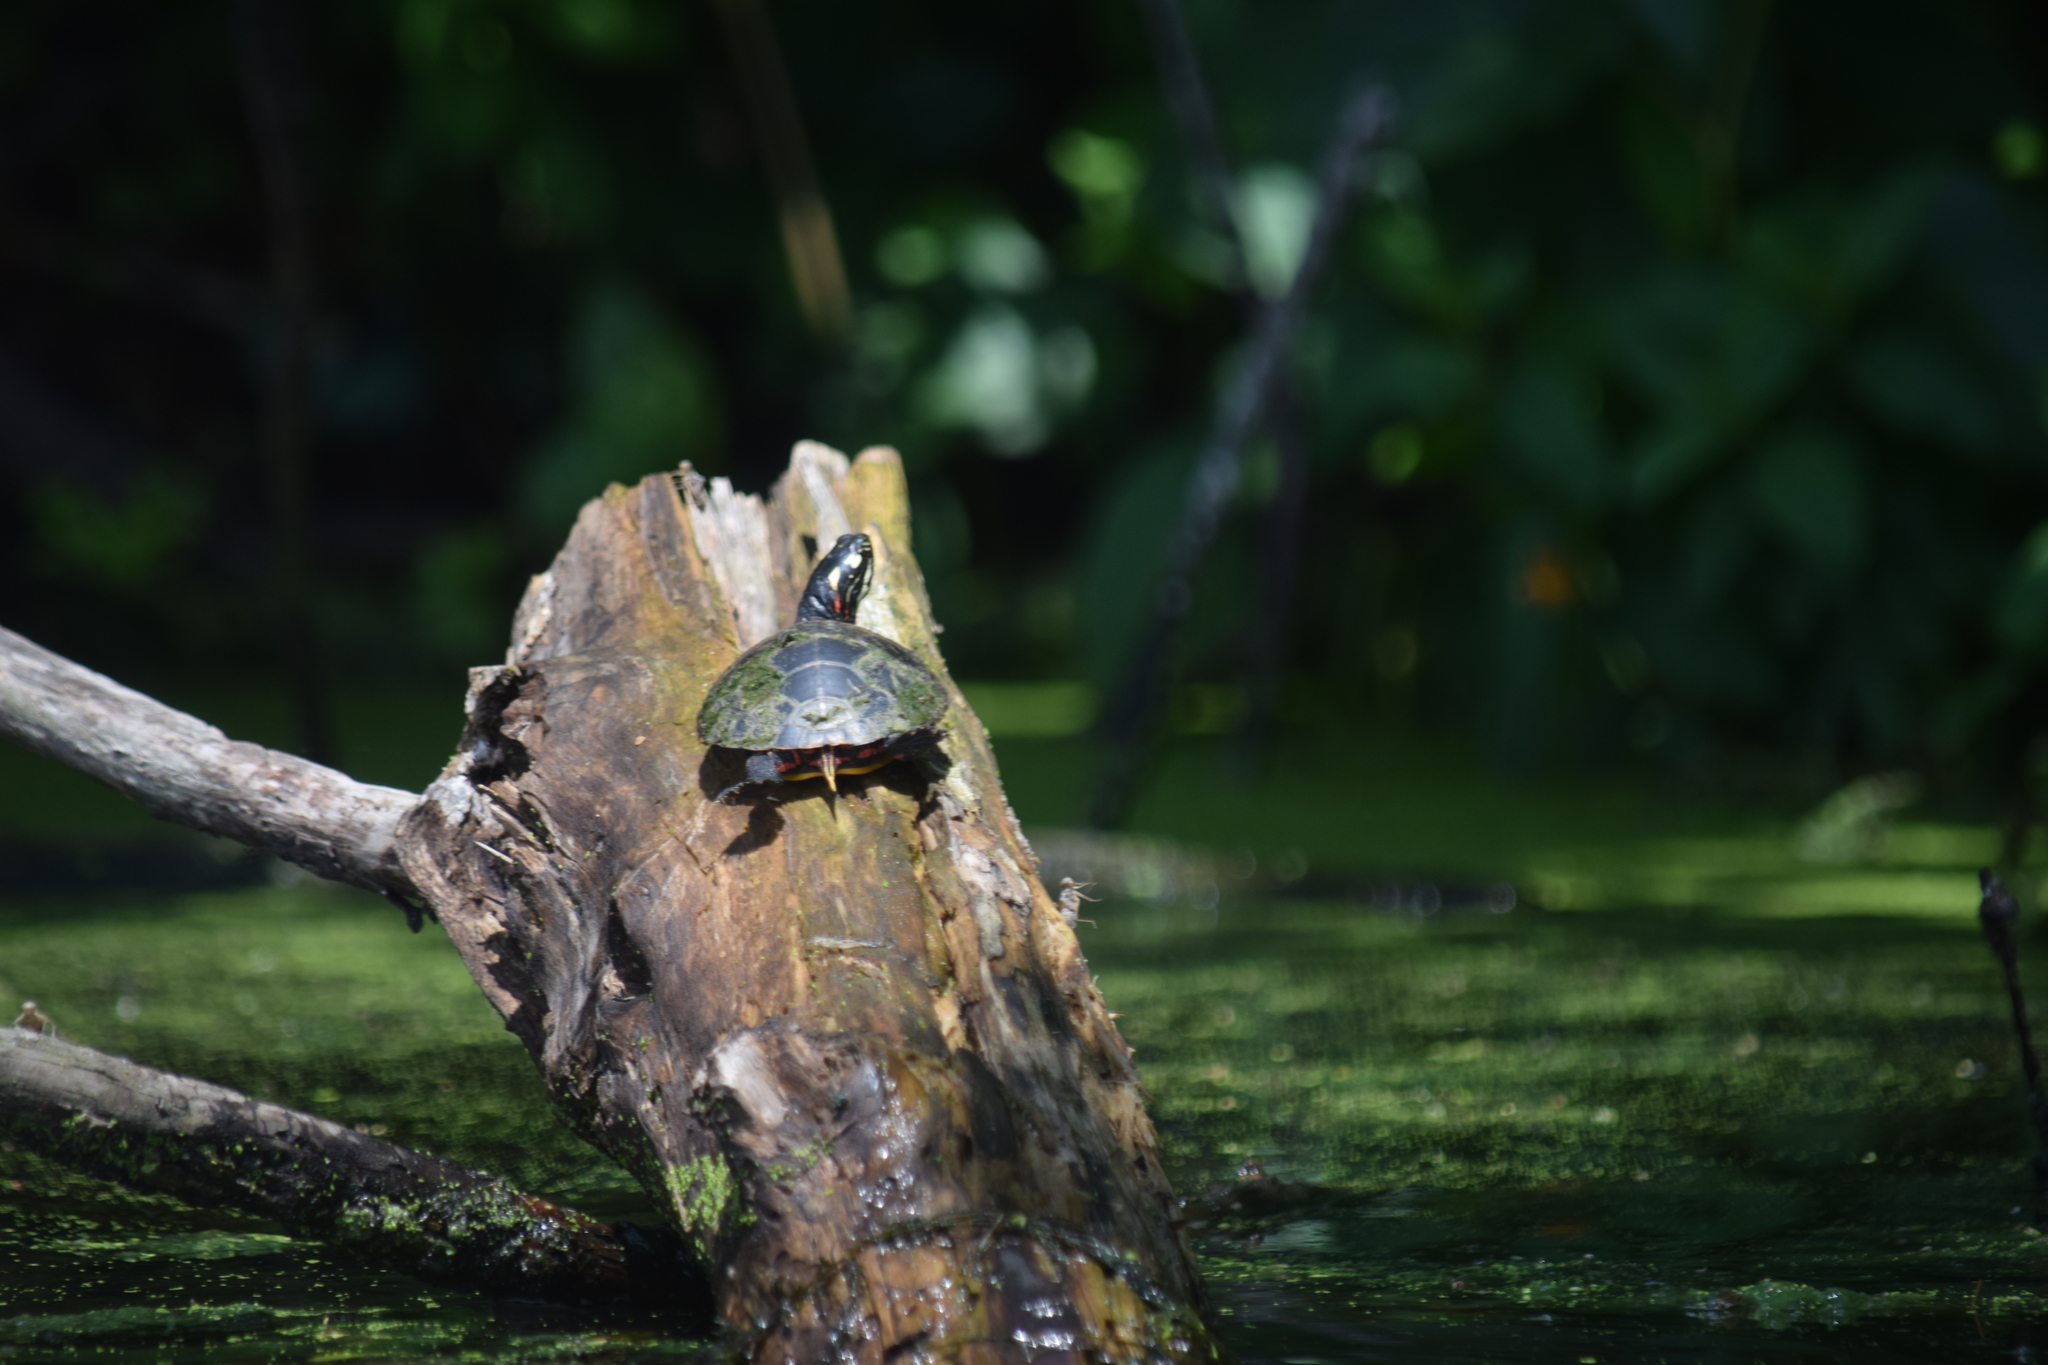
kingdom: Animalia
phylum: Chordata
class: Testudines
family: Emydidae
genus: Chrysemys
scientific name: Chrysemys picta
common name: Painted turtle
